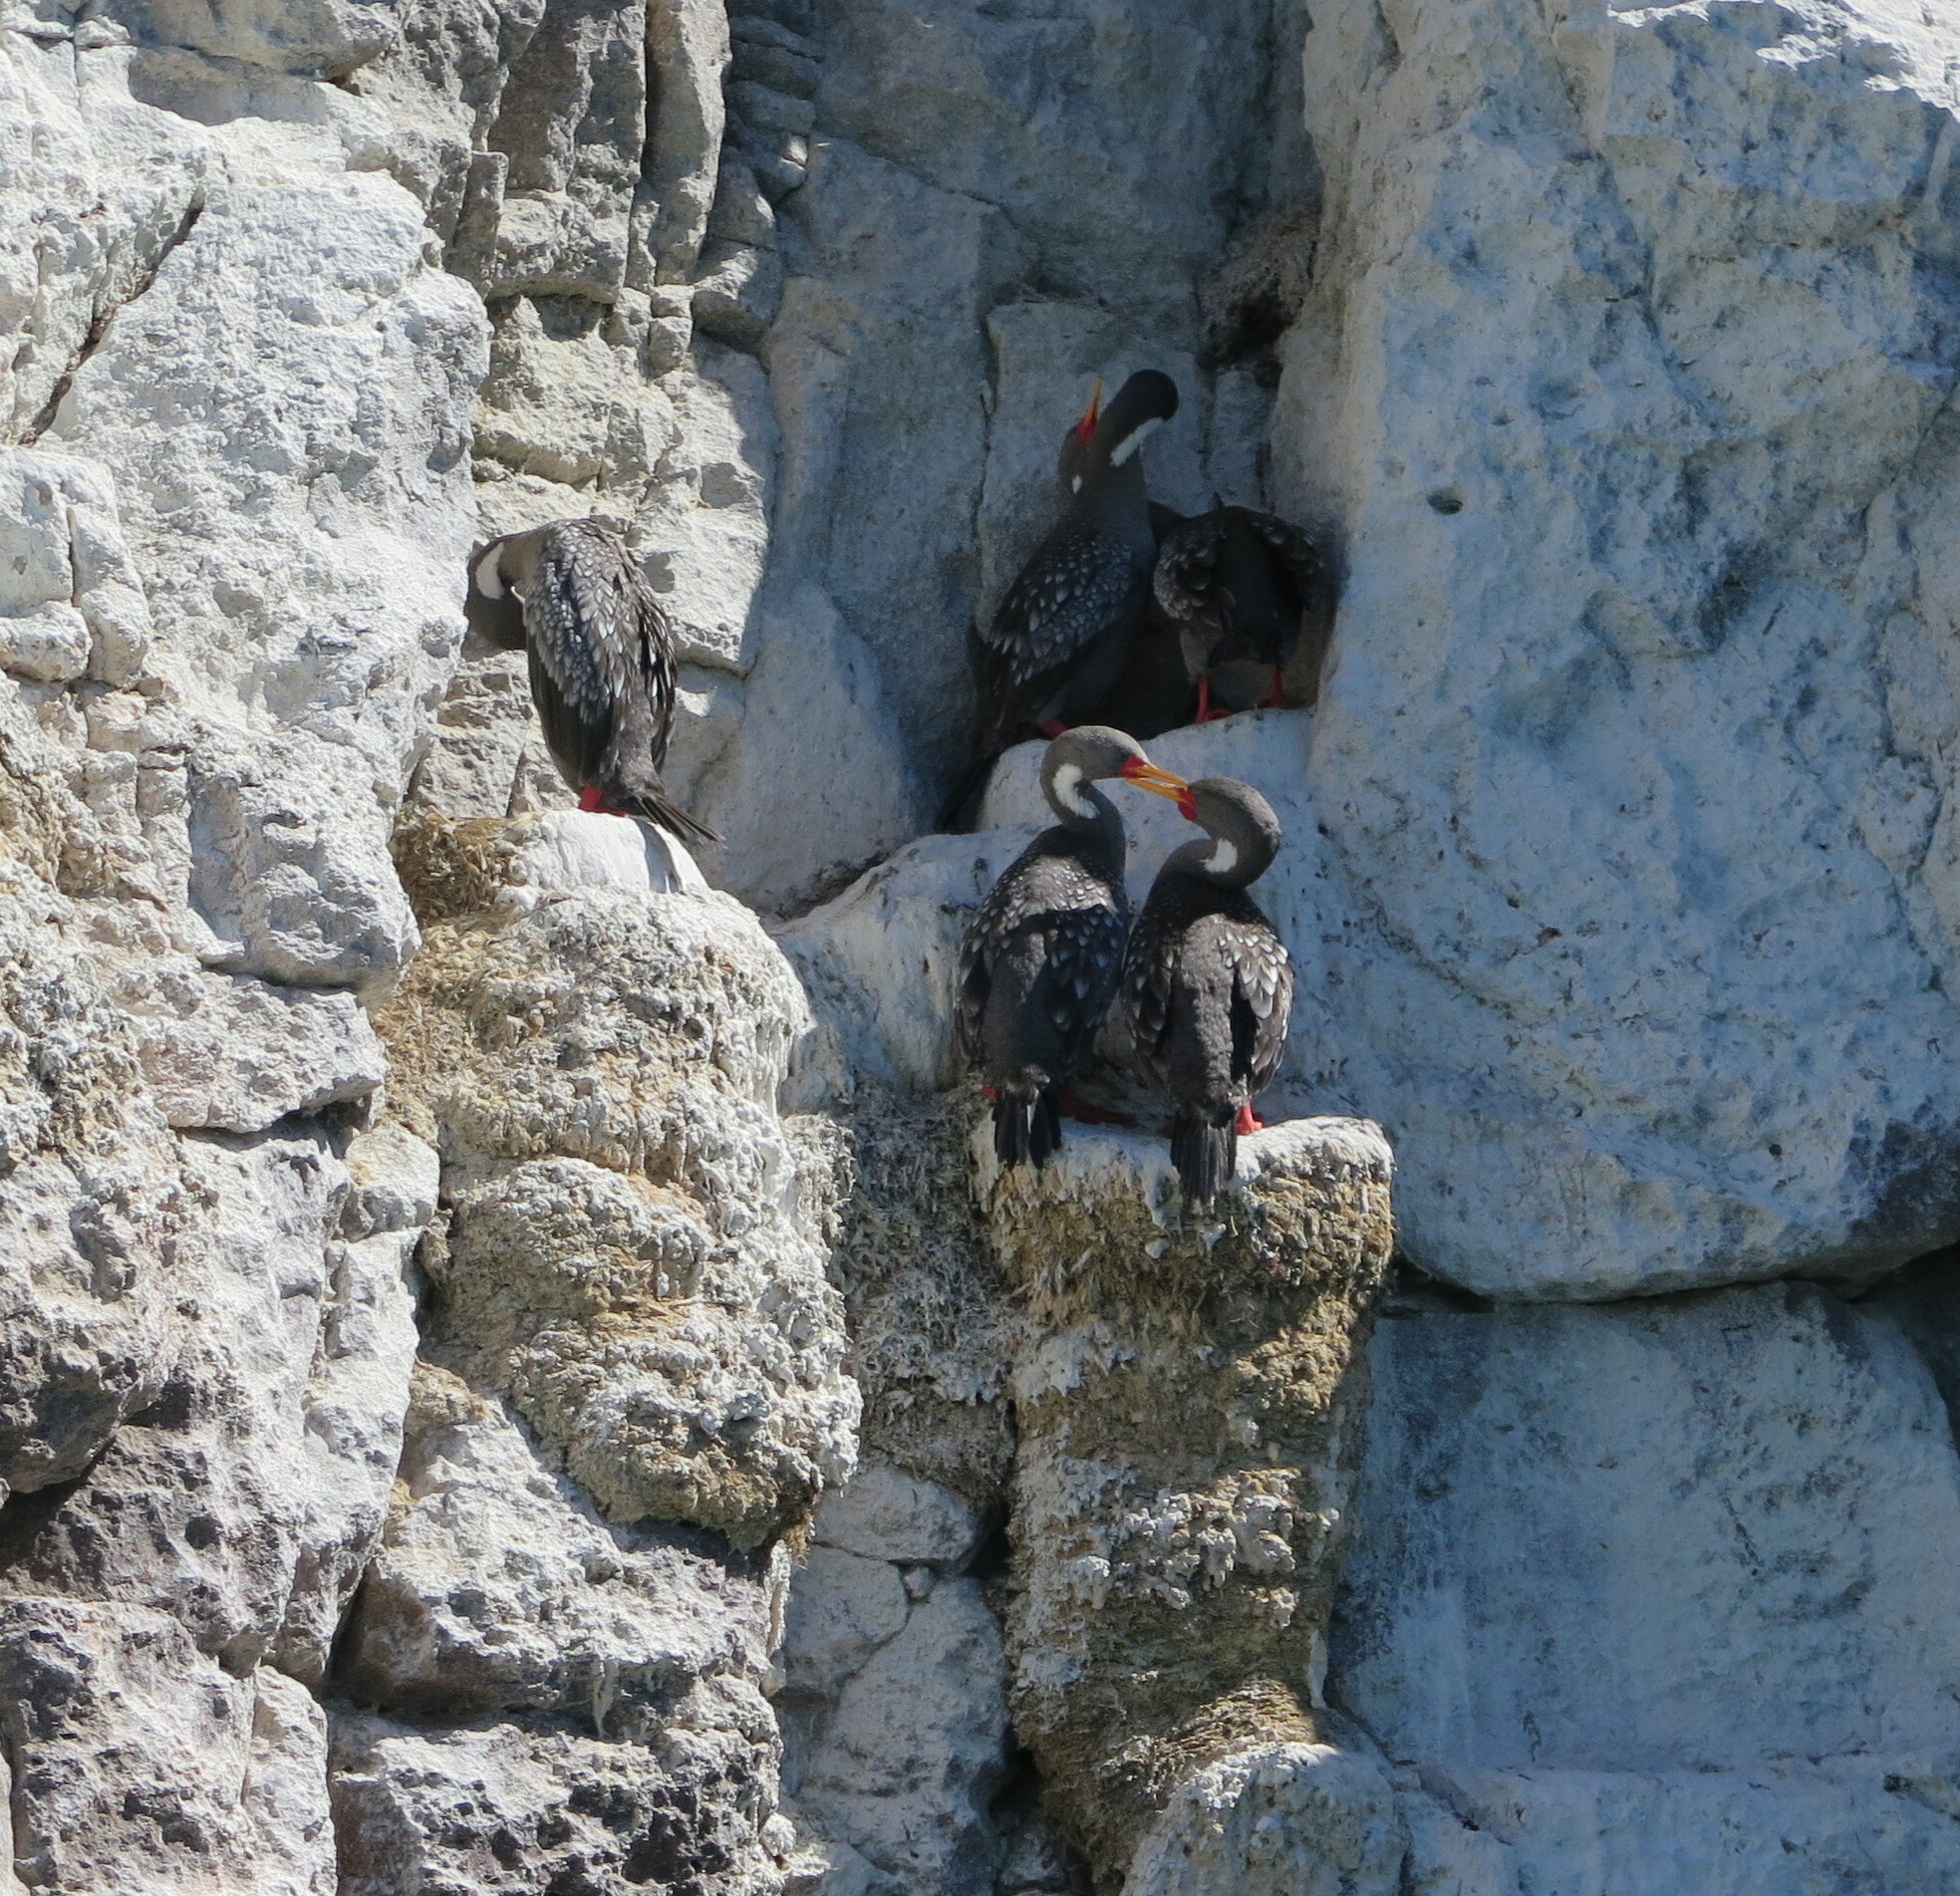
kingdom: Animalia
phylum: Chordata
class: Aves
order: Suliformes
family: Phalacrocoracidae
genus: Phalacrocorax
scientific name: Phalacrocorax gaimardi
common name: Red-legged cormorant
